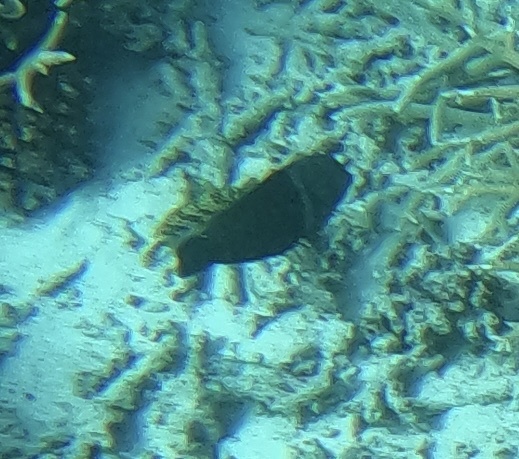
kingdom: Animalia
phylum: Chordata
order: Perciformes
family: Labridae
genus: Coris
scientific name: Coris aygula
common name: Clown coris
